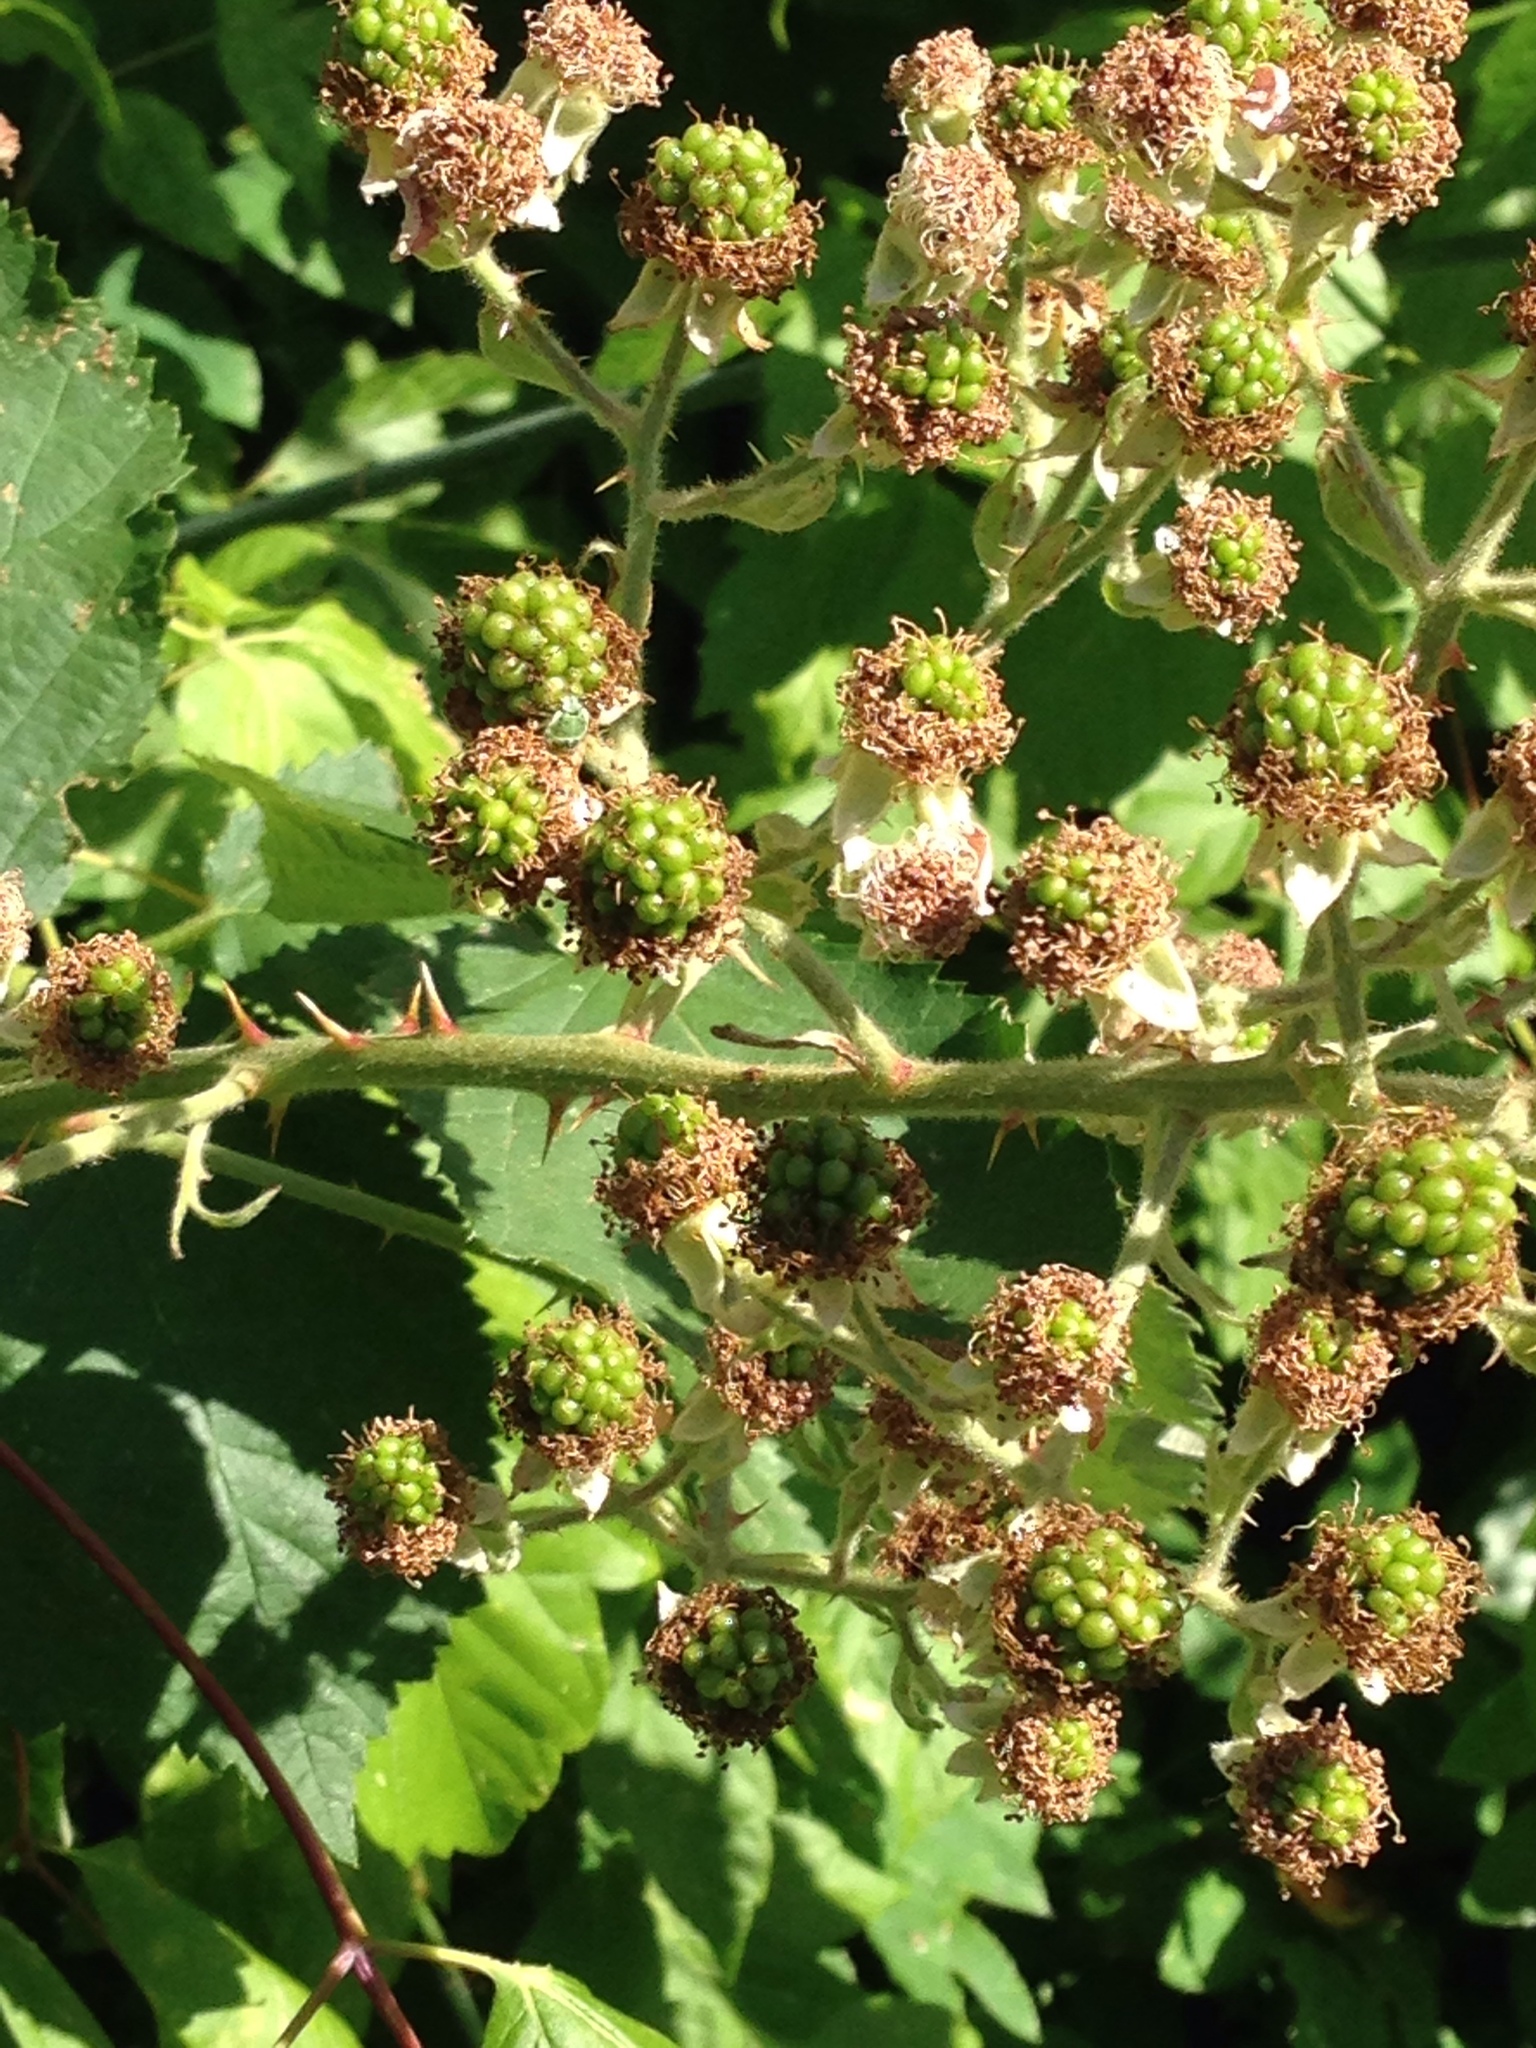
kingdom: Plantae
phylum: Tracheophyta
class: Magnoliopsida
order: Rosales
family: Rosaceae
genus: Rubus
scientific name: Rubus armeniacus
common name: Himalayan blackberry
